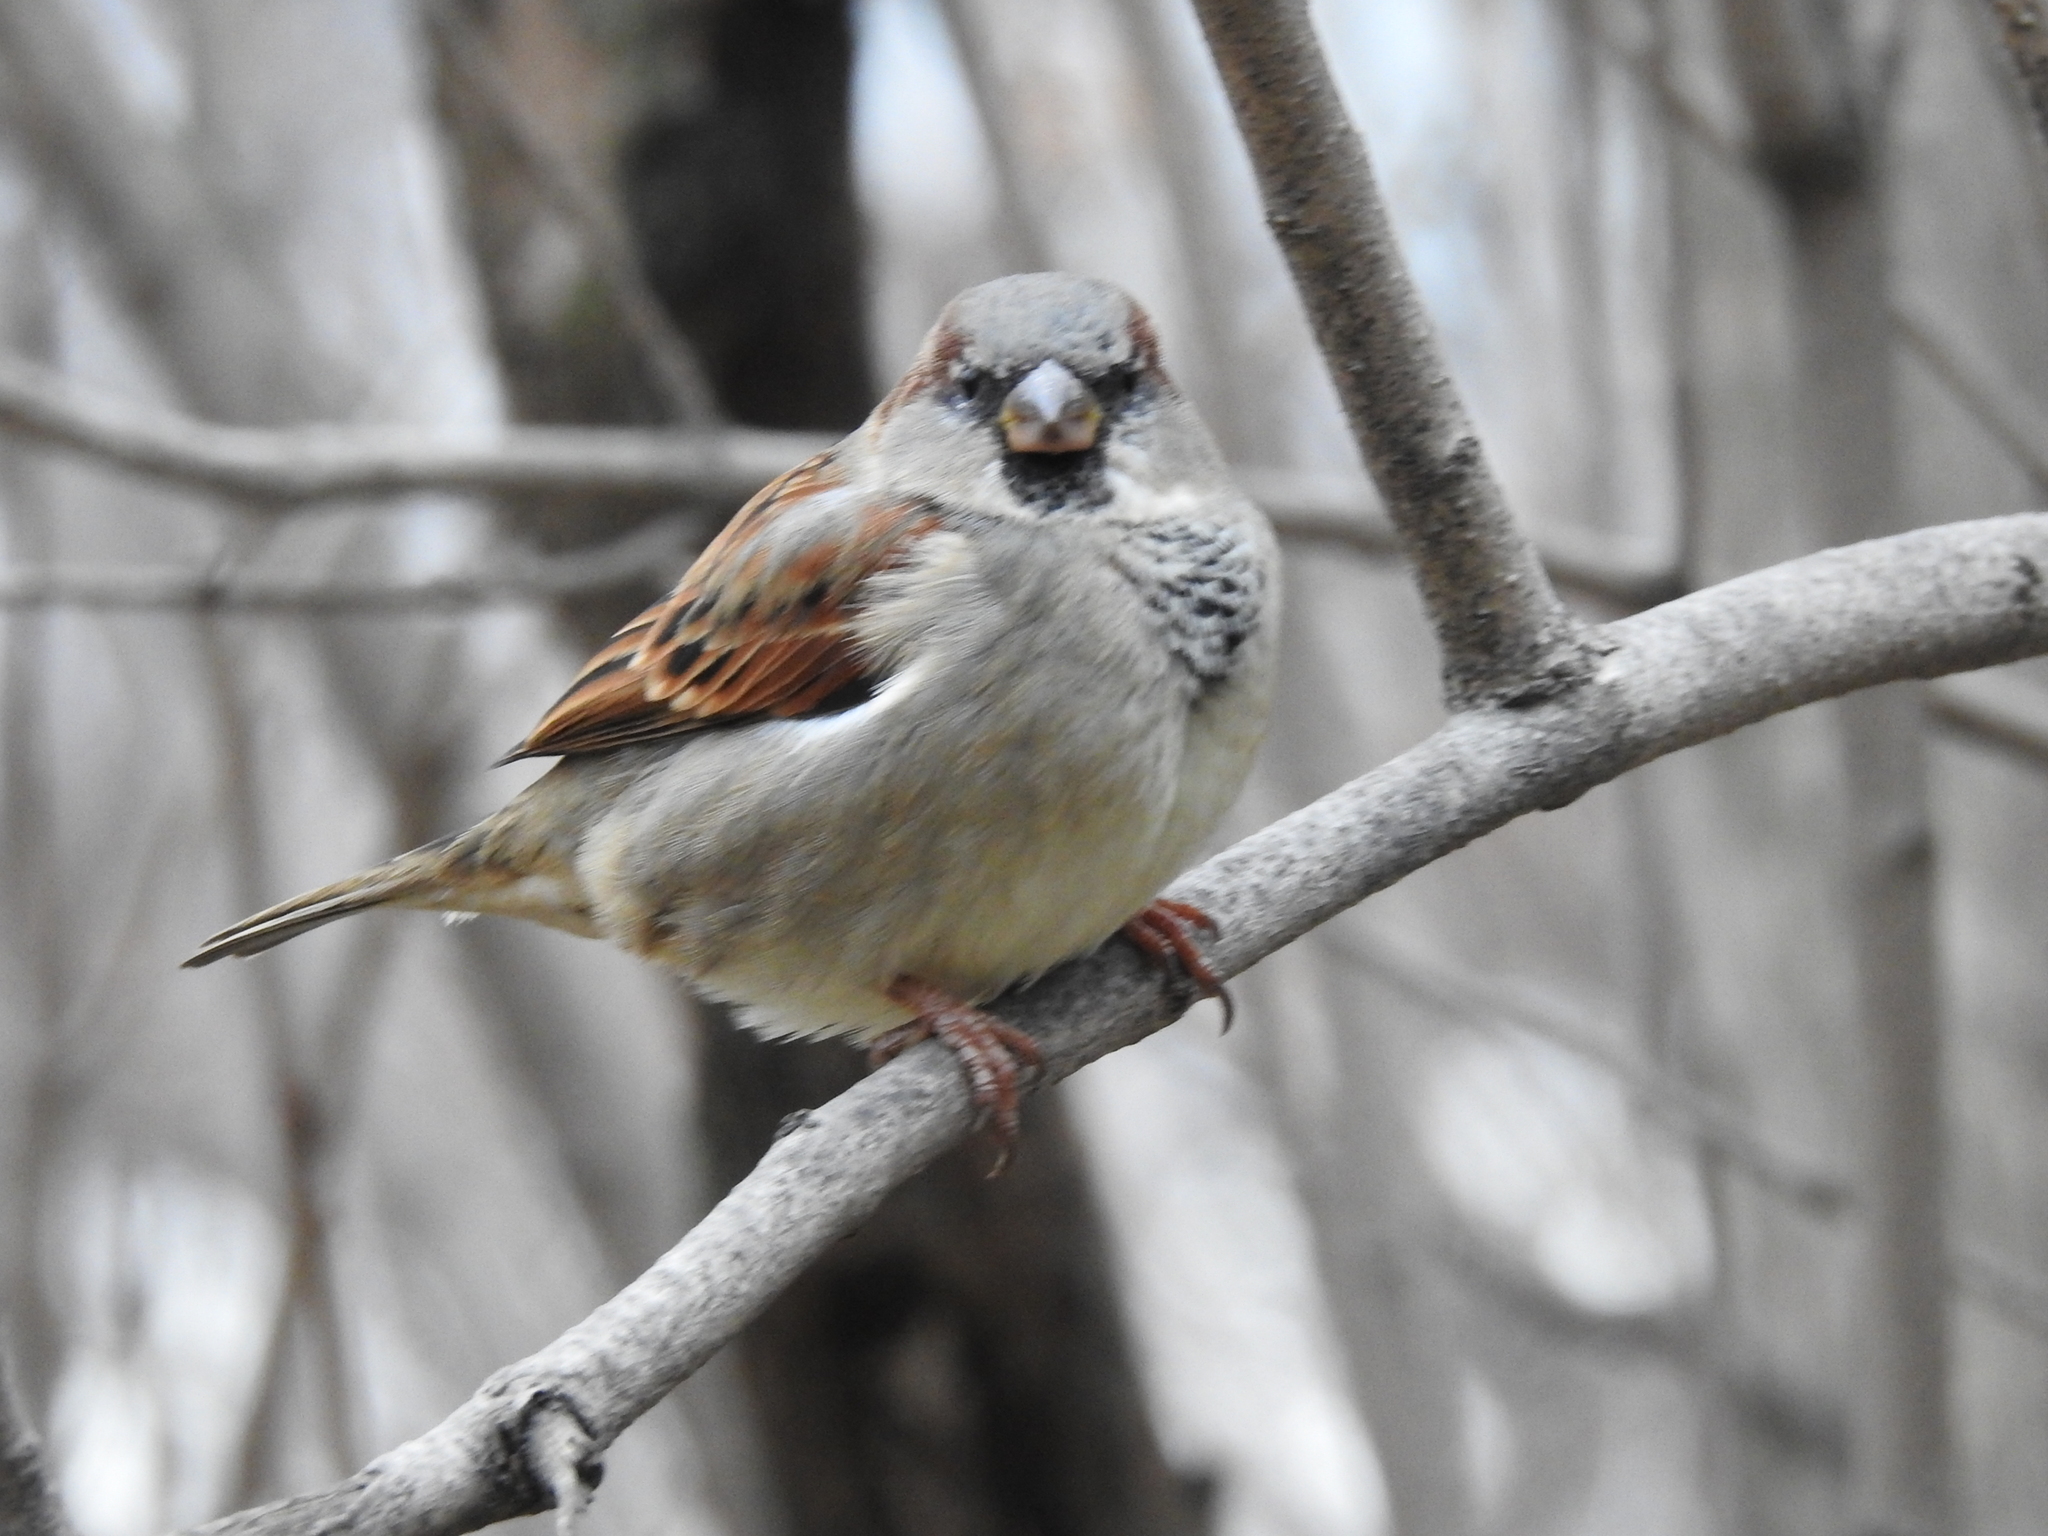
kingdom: Animalia
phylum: Chordata
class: Aves
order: Passeriformes
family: Passeridae
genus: Passer
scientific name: Passer domesticus
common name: House sparrow
